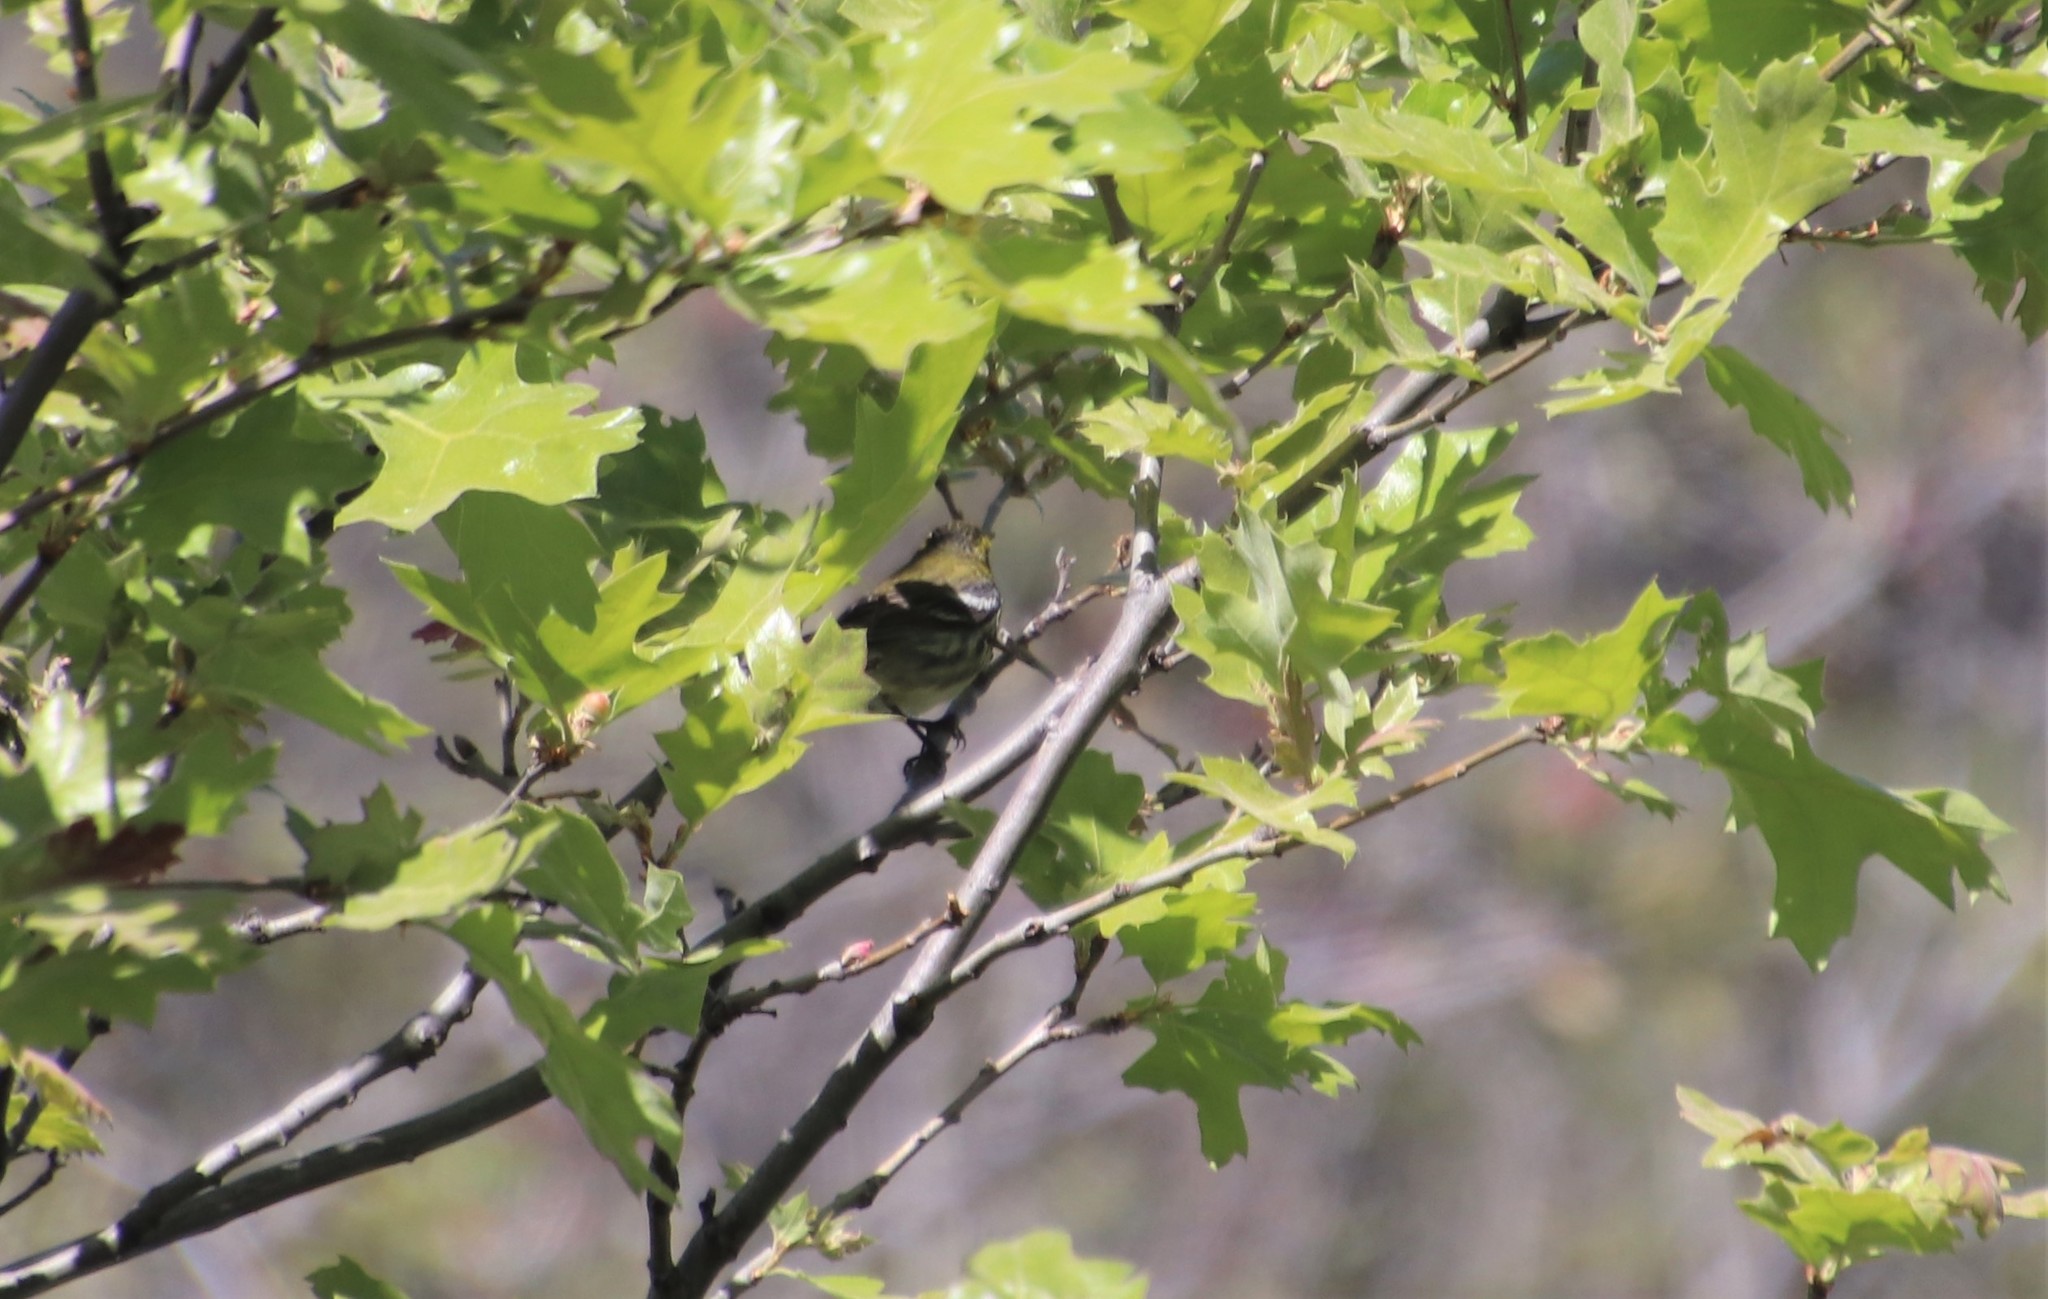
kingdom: Animalia
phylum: Chordata
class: Aves
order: Passeriformes
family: Parulidae
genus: Setophaga
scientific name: Setophaga townsendi
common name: Townsend's warbler
